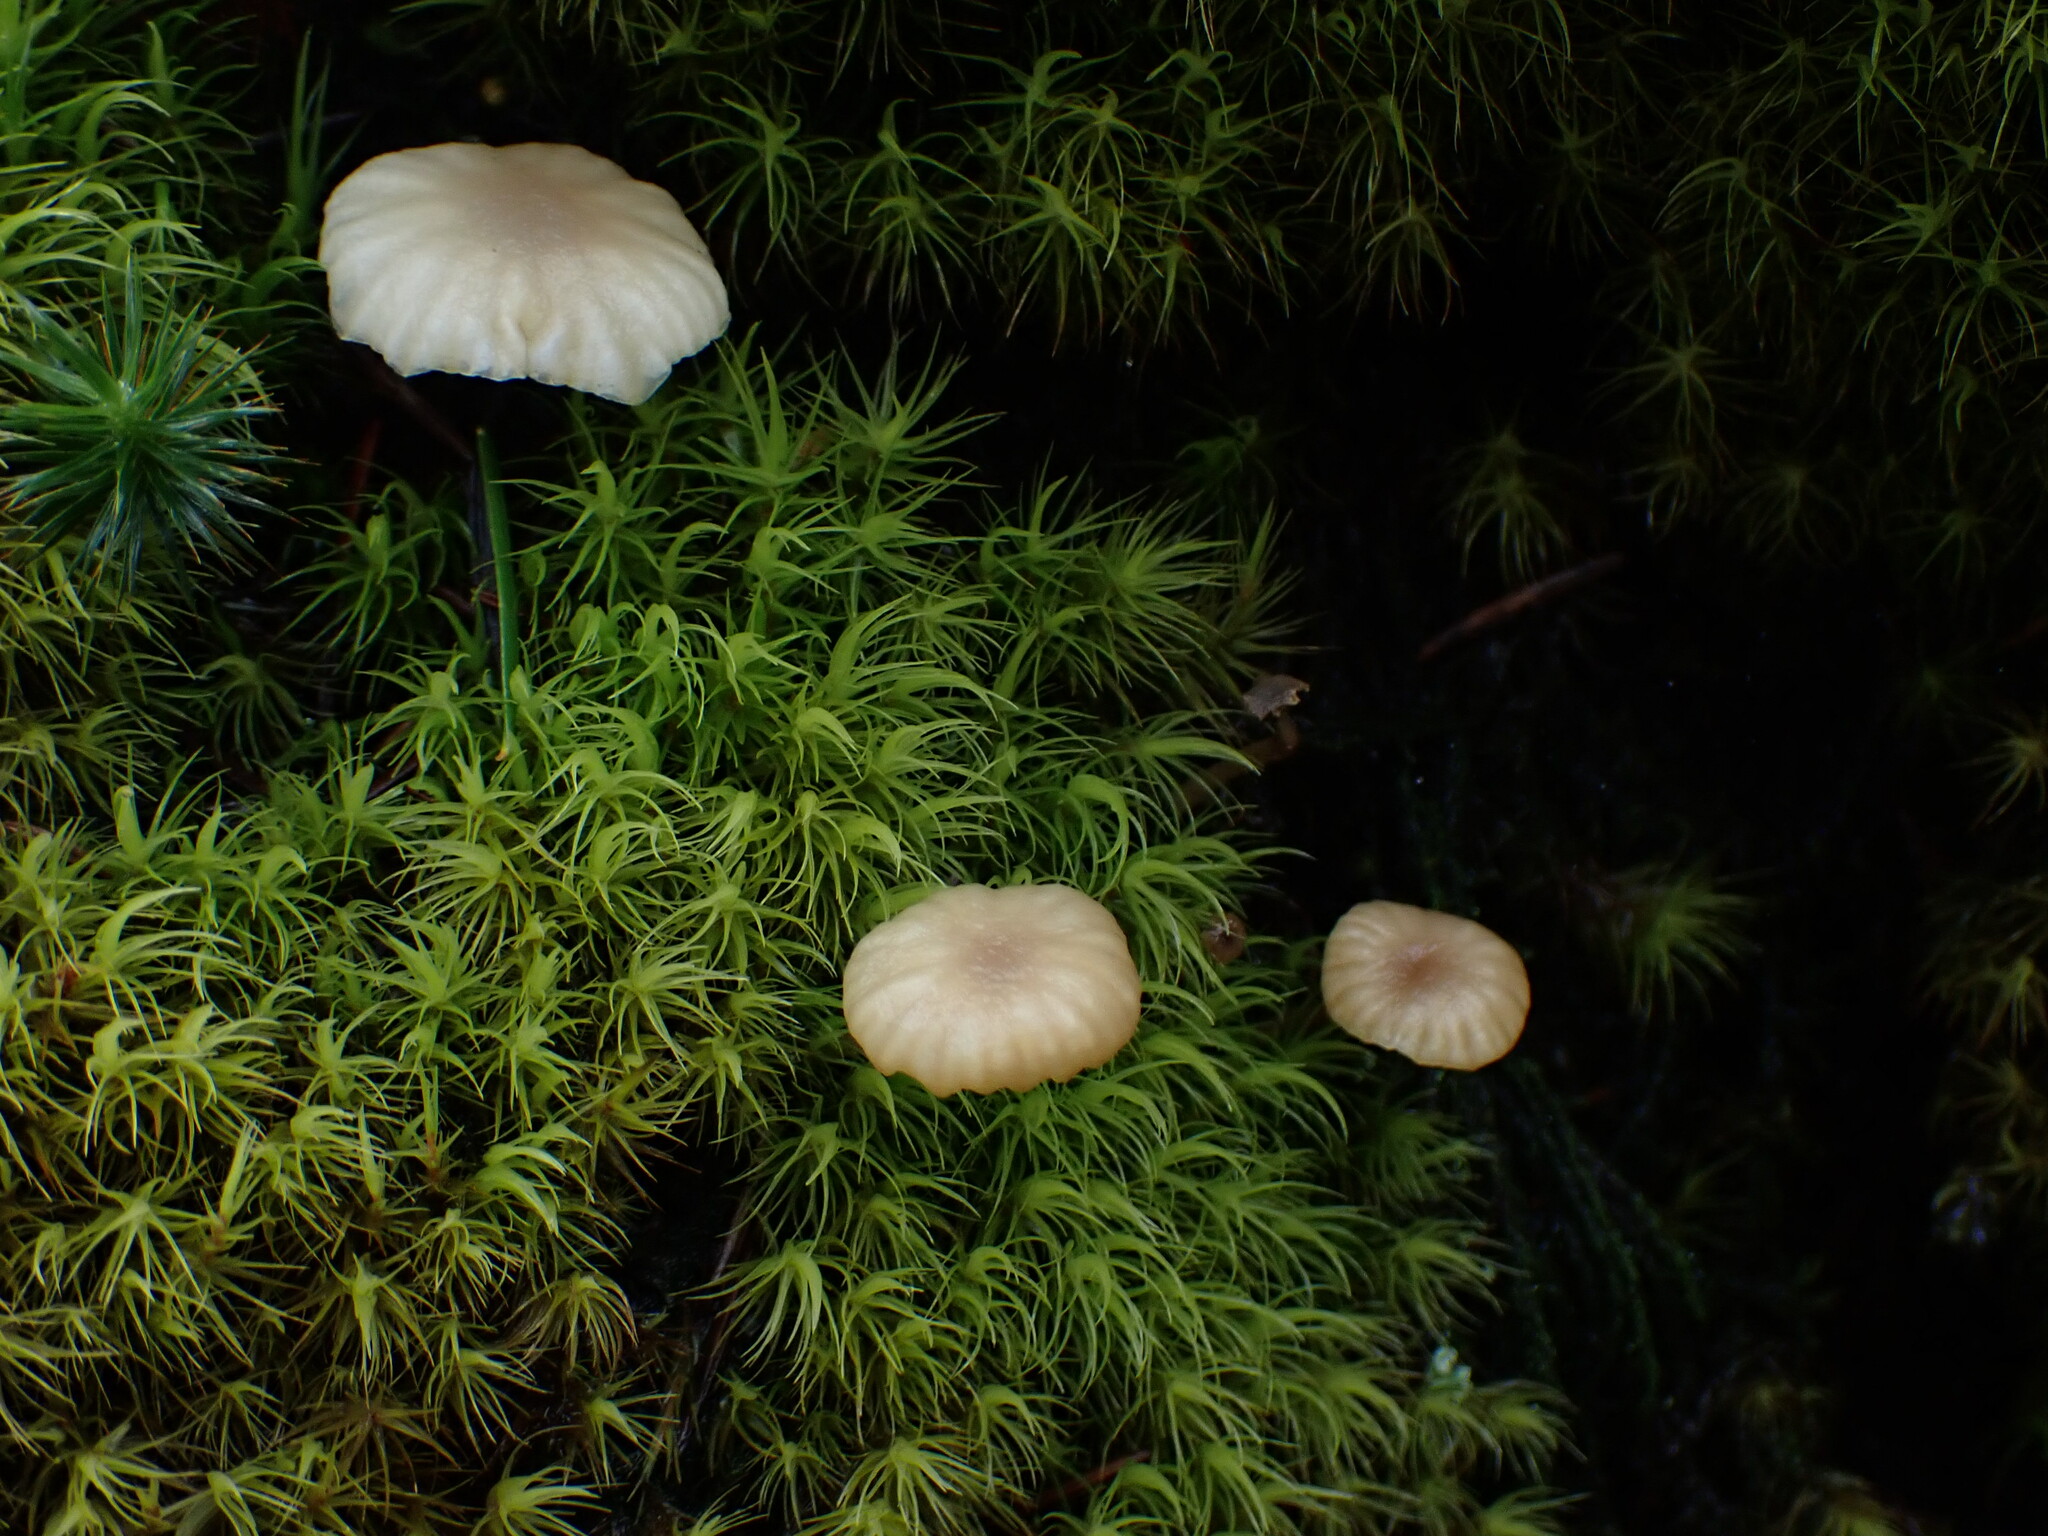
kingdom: Fungi
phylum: Basidiomycota
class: Agaricomycetes
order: Agaricales
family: Hygrophoraceae
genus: Lichenomphalia
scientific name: Lichenomphalia
